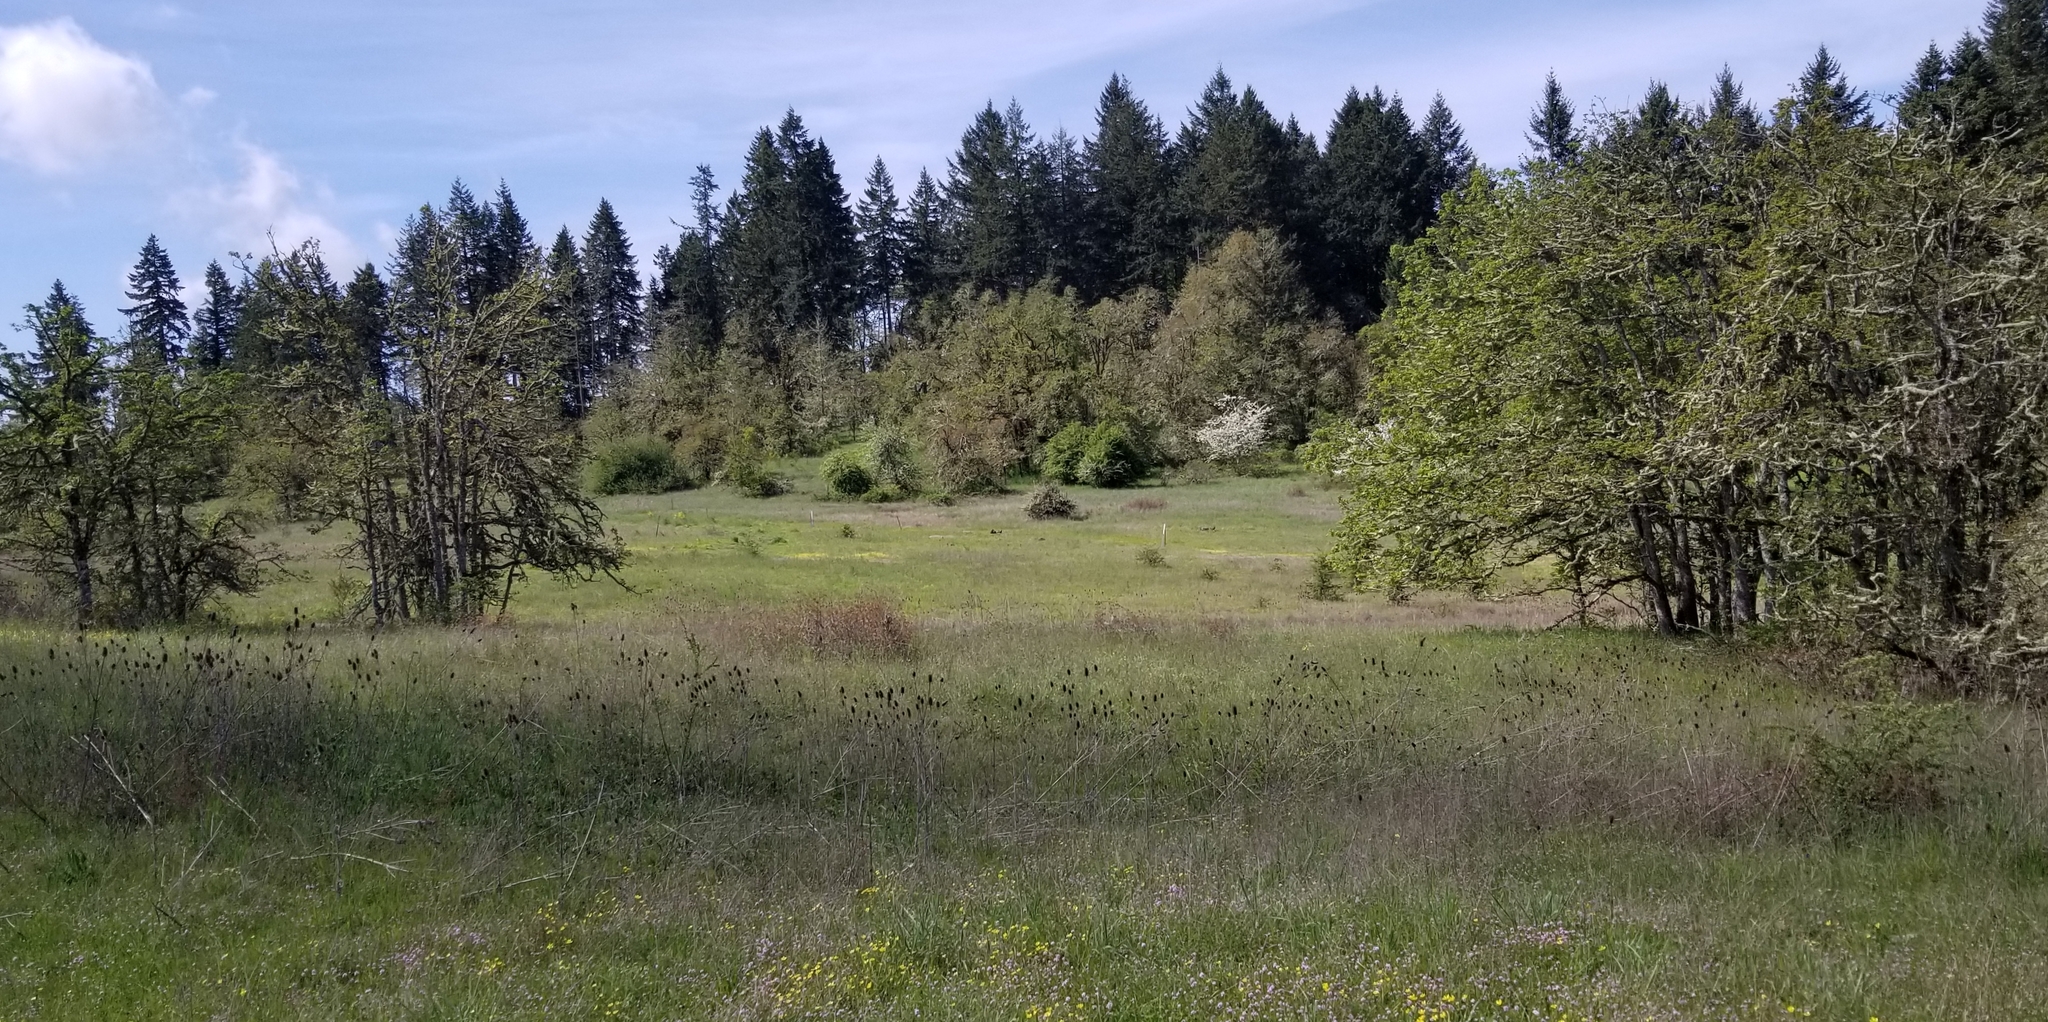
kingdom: Plantae
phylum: Tracheophyta
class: Magnoliopsida
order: Ranunculales
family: Ranunculaceae
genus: Delphinium
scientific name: Delphinium menziesii
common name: Menzies's larkspur
